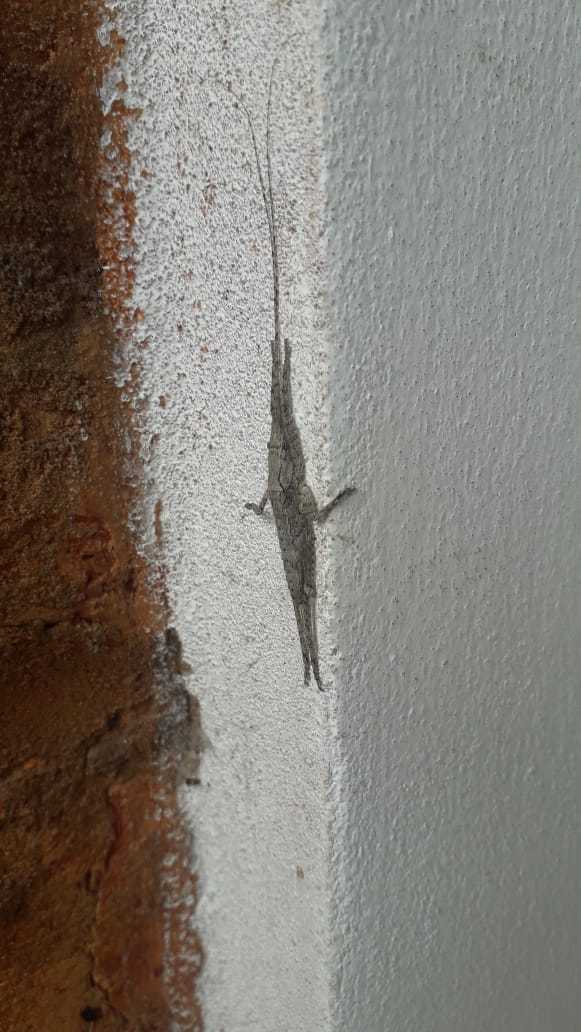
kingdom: Animalia
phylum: Arthropoda
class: Insecta
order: Orthoptera
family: Tettigoniidae
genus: Dasyscelus
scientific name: Dasyscelus normalis
